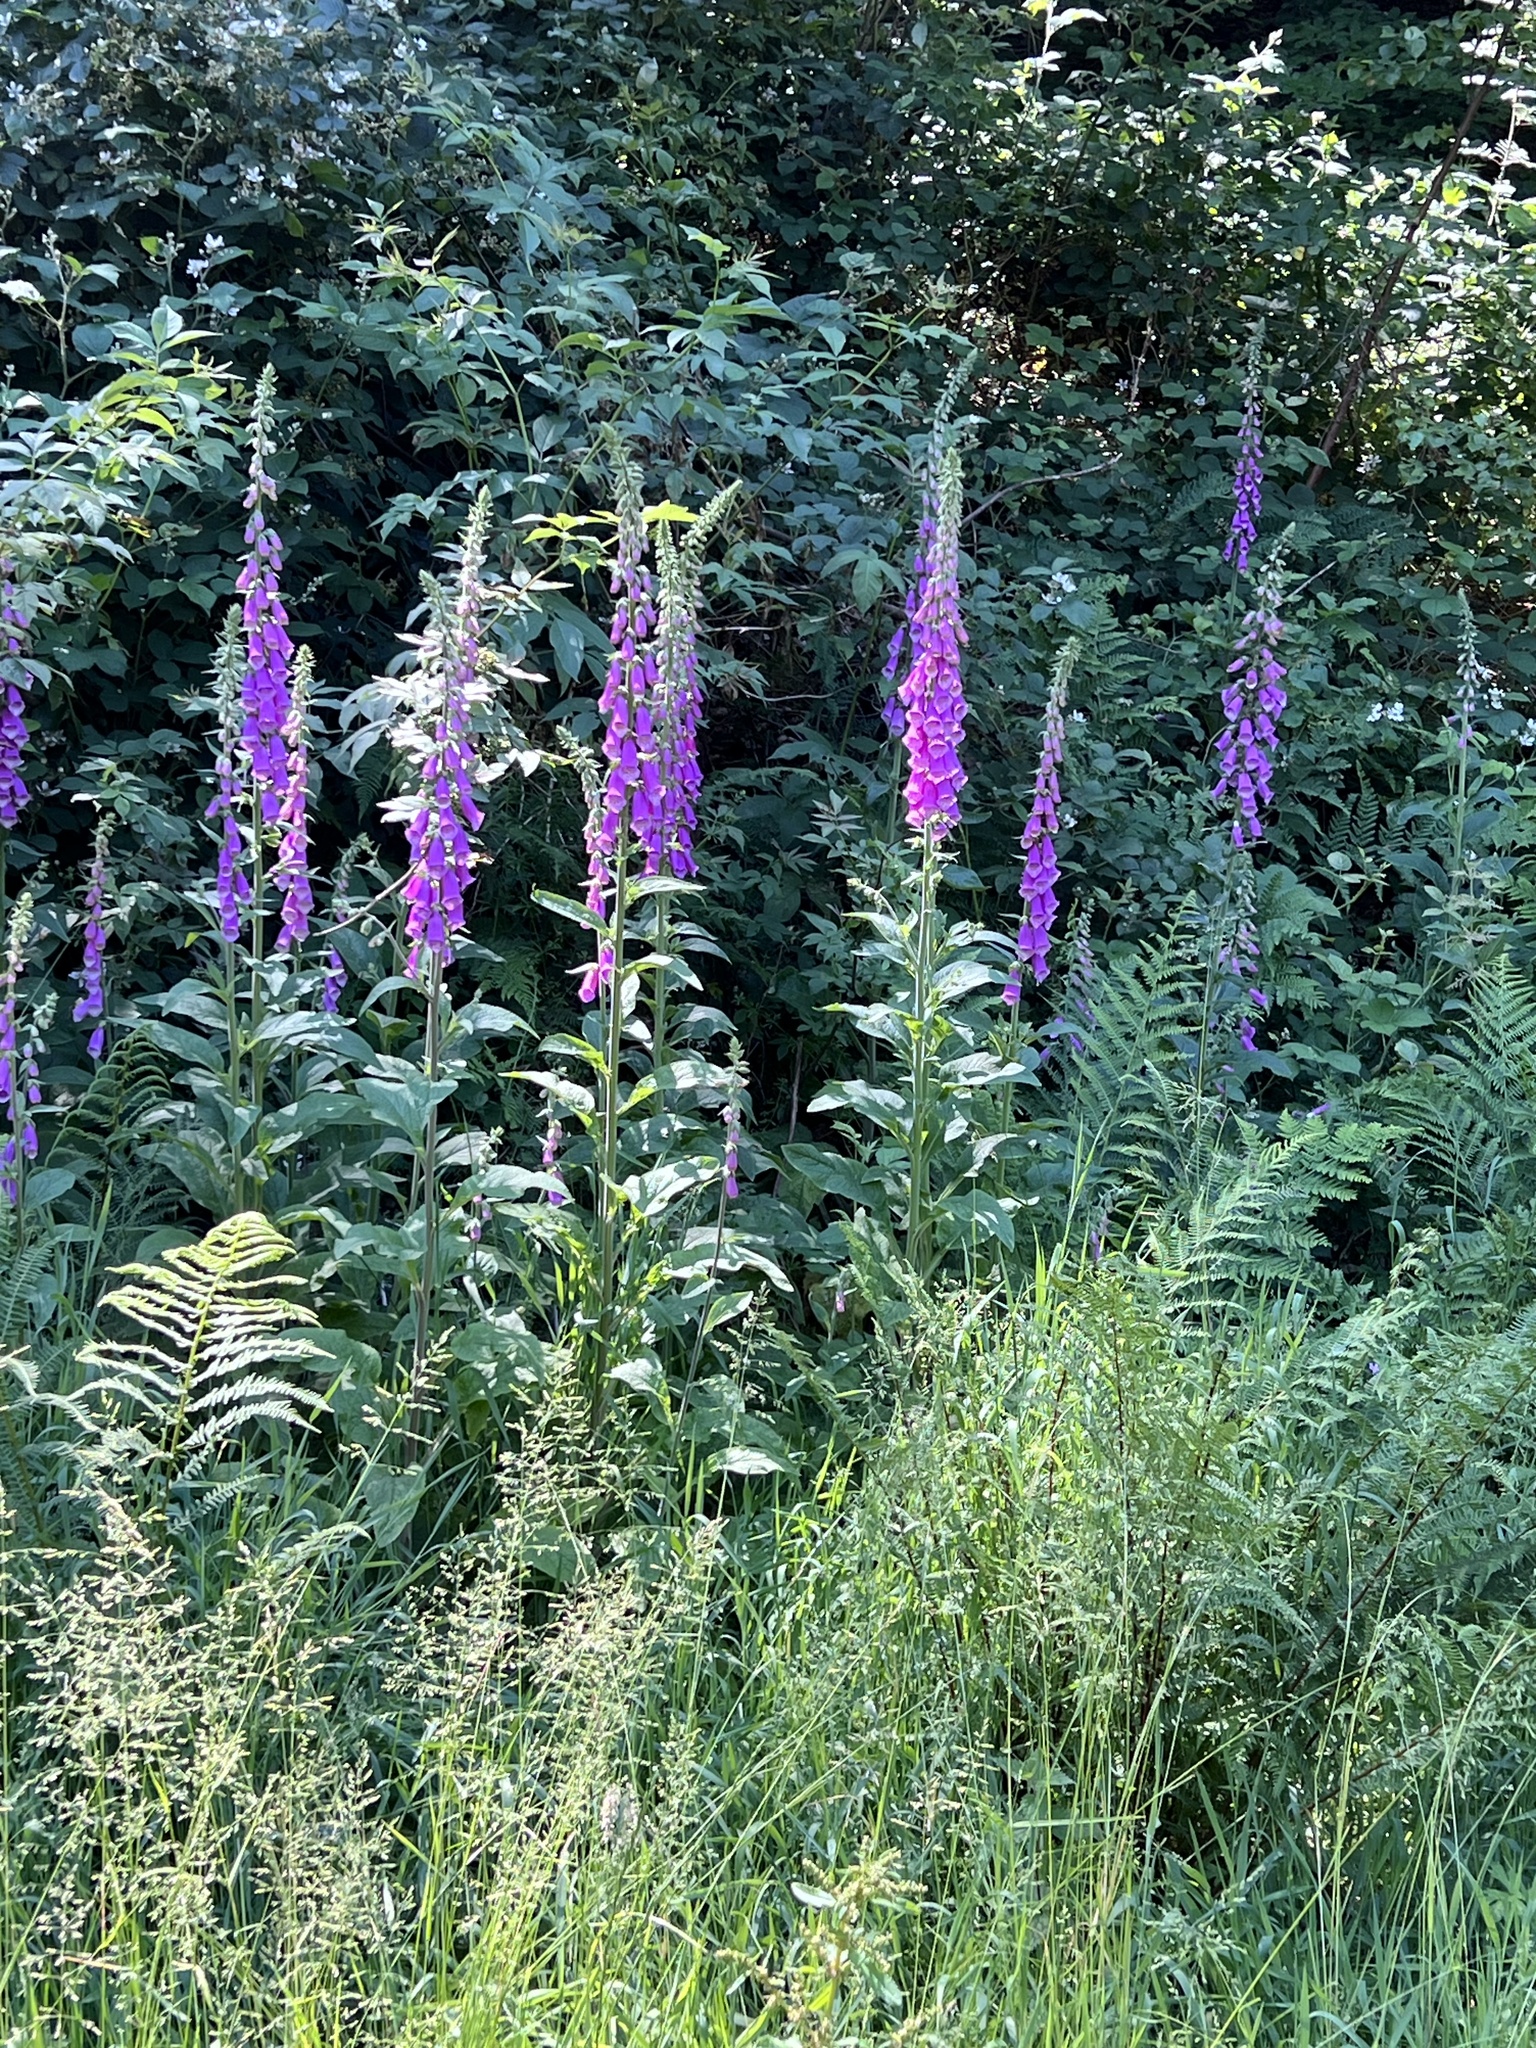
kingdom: Plantae
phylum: Tracheophyta
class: Magnoliopsida
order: Lamiales
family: Plantaginaceae
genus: Digitalis
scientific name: Digitalis purpurea
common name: Foxglove
